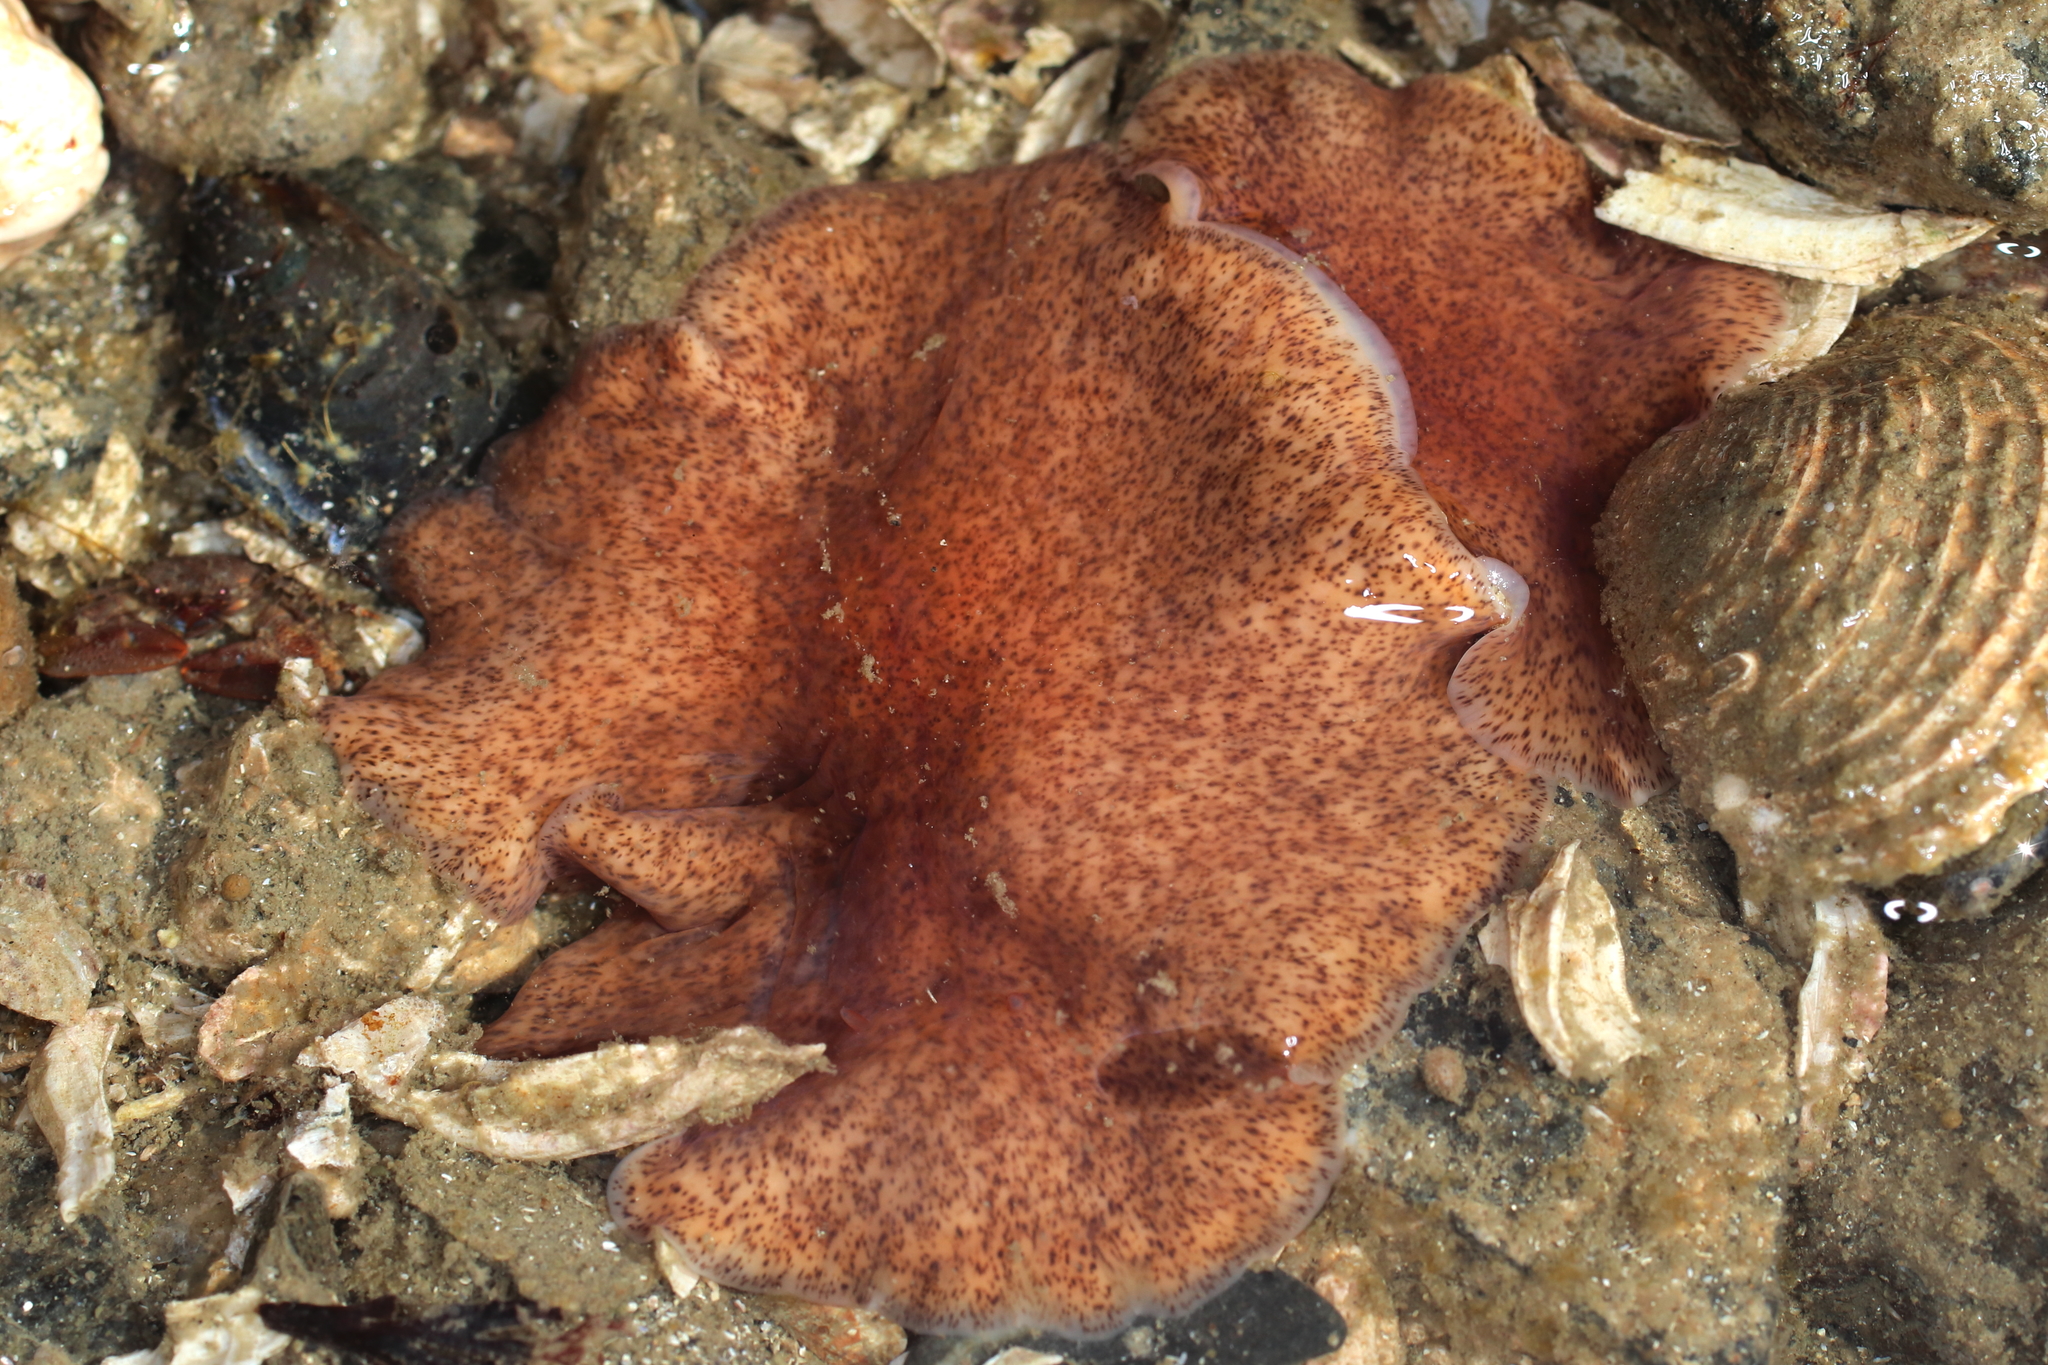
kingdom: Animalia
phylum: Platyhelminthes
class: Turbellaria
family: Callioplanidae
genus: Kaburakia
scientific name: Kaburakia excelsa
